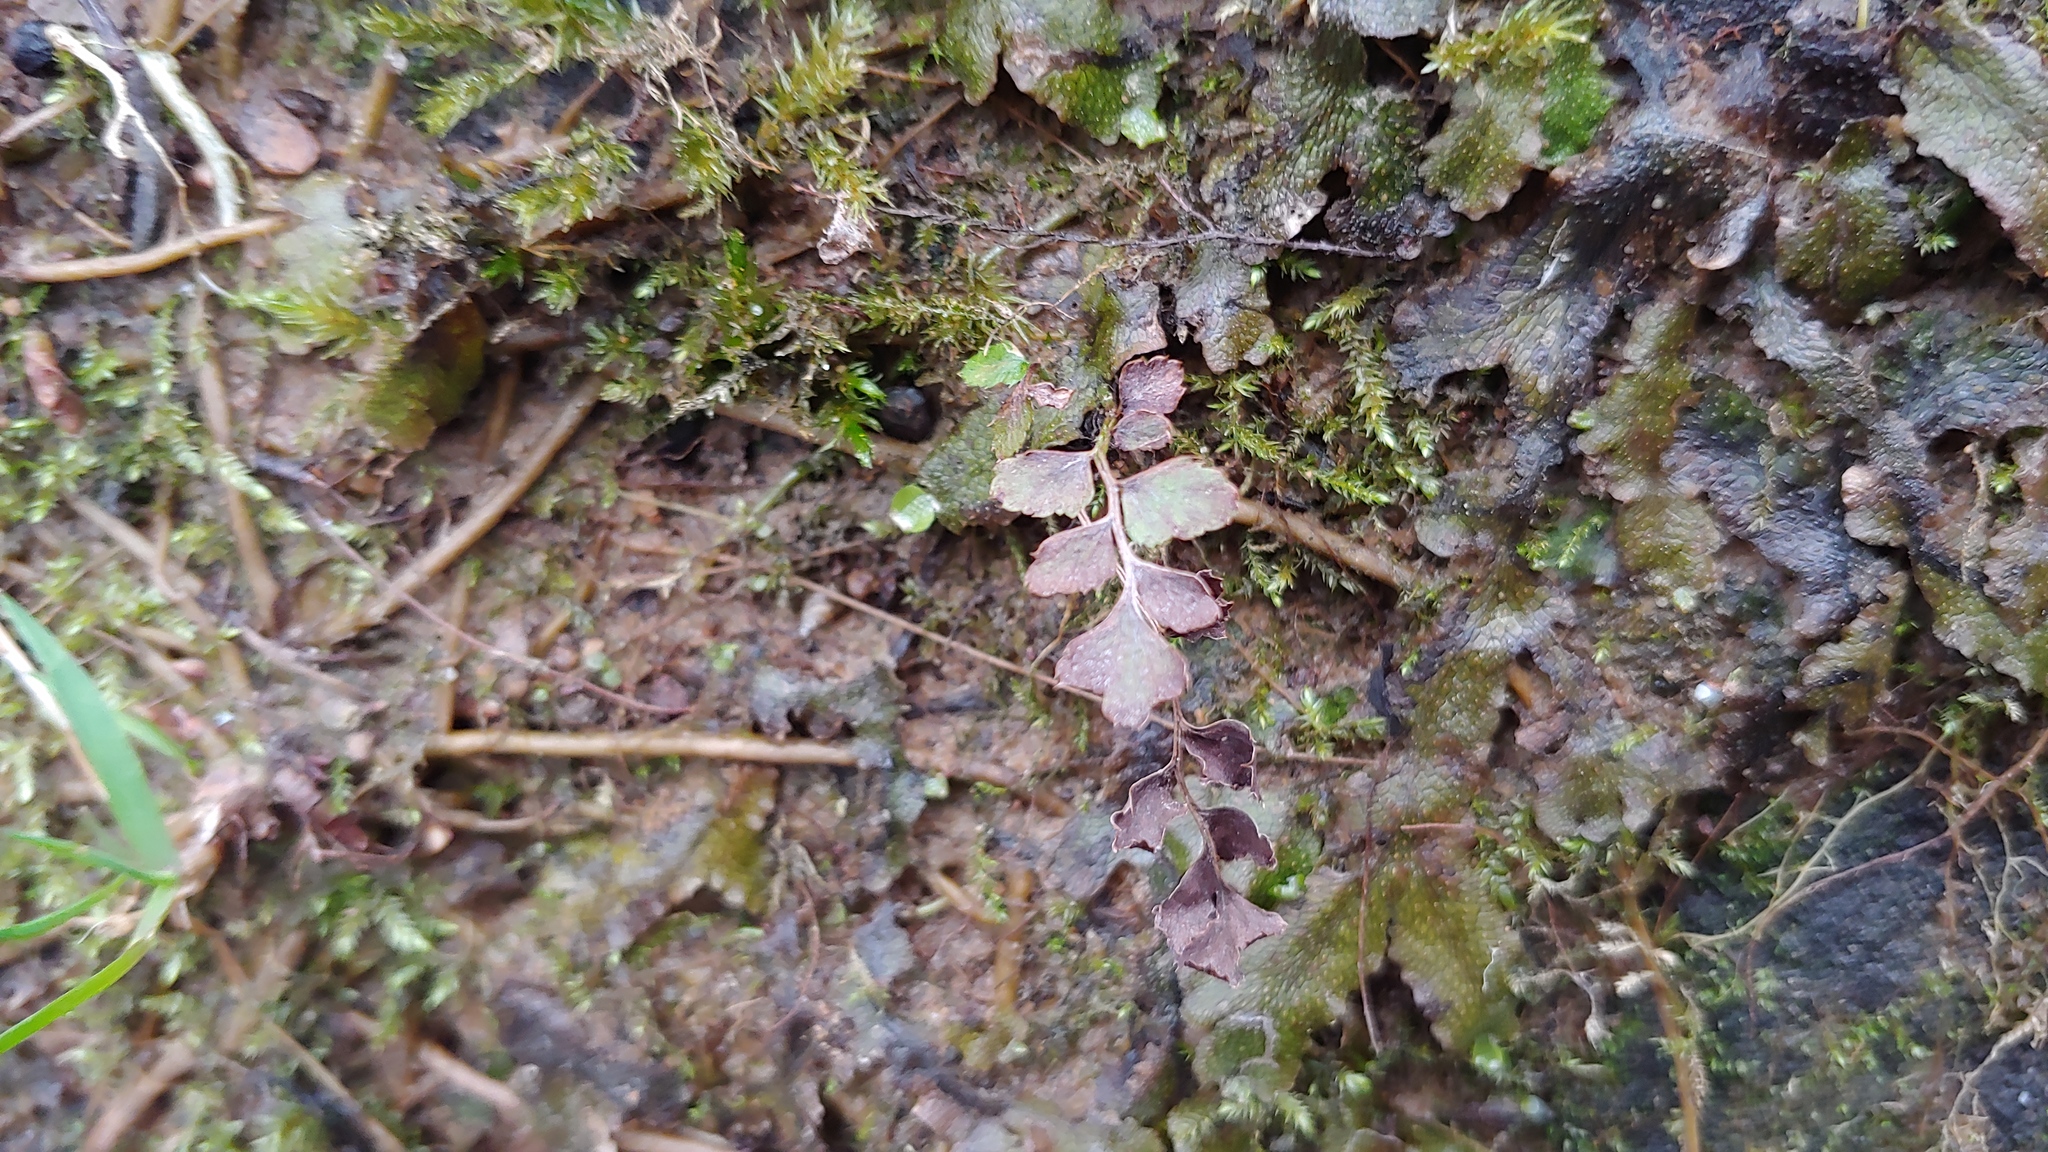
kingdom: Plantae
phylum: Tracheophyta
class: Polypodiopsida
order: Polypodiales
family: Dryopteridaceae
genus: Polystichum
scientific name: Polystichum acrostichoides
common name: Christmas fern
